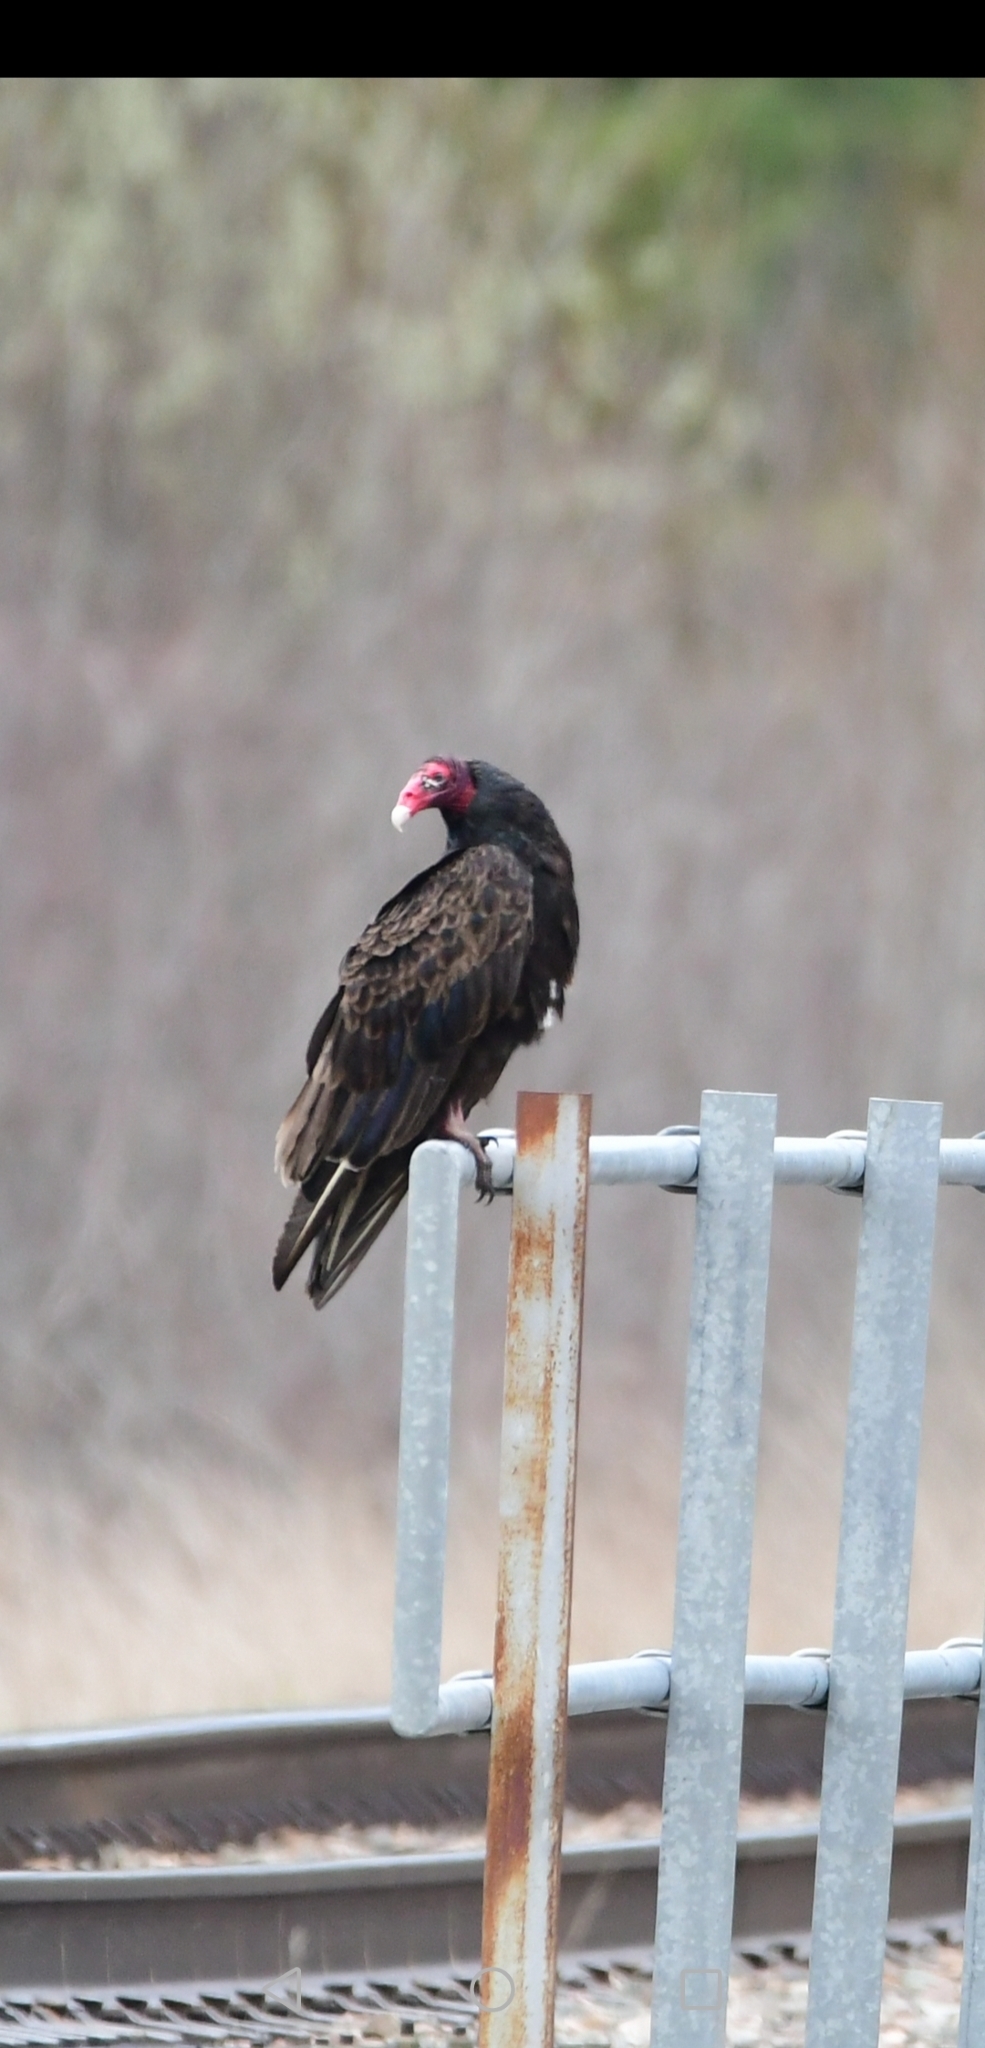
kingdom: Animalia
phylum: Chordata
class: Aves
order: Accipitriformes
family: Cathartidae
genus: Cathartes
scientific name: Cathartes aura
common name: Turkey vulture
